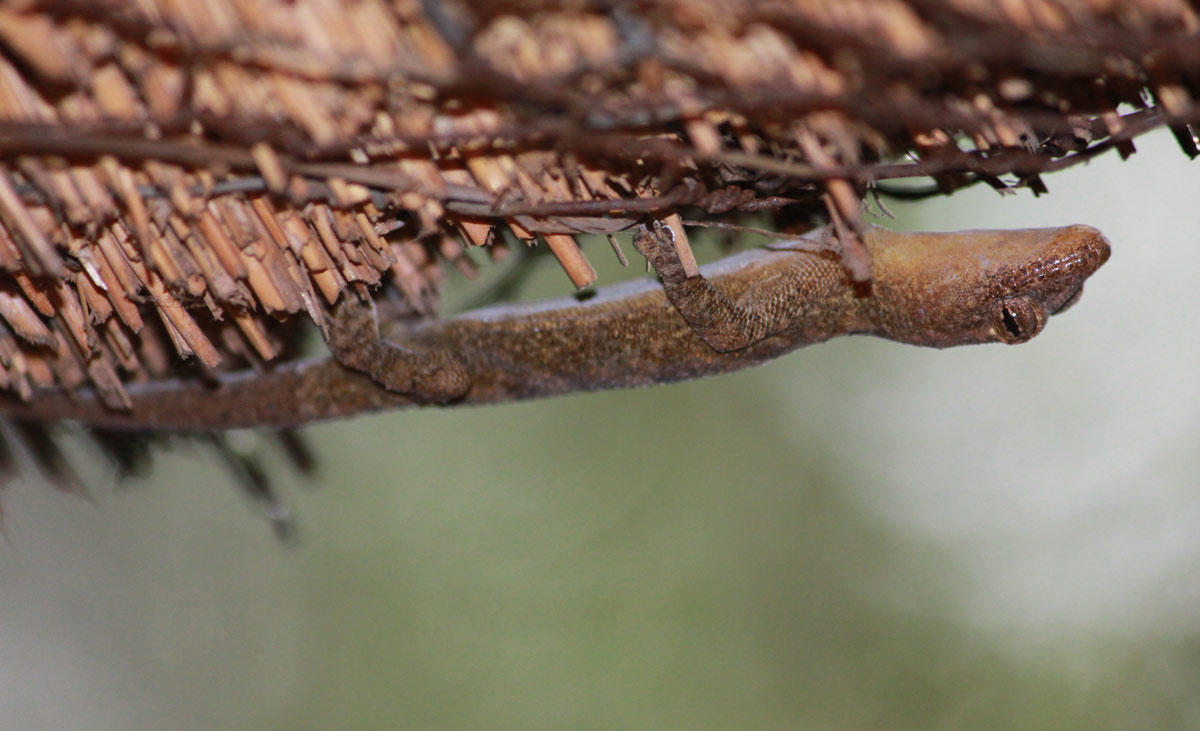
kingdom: Animalia
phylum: Chordata
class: Squamata
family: Gekkonidae
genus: Hemidactylus
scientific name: Hemidactylus mabouia
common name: House gecko
